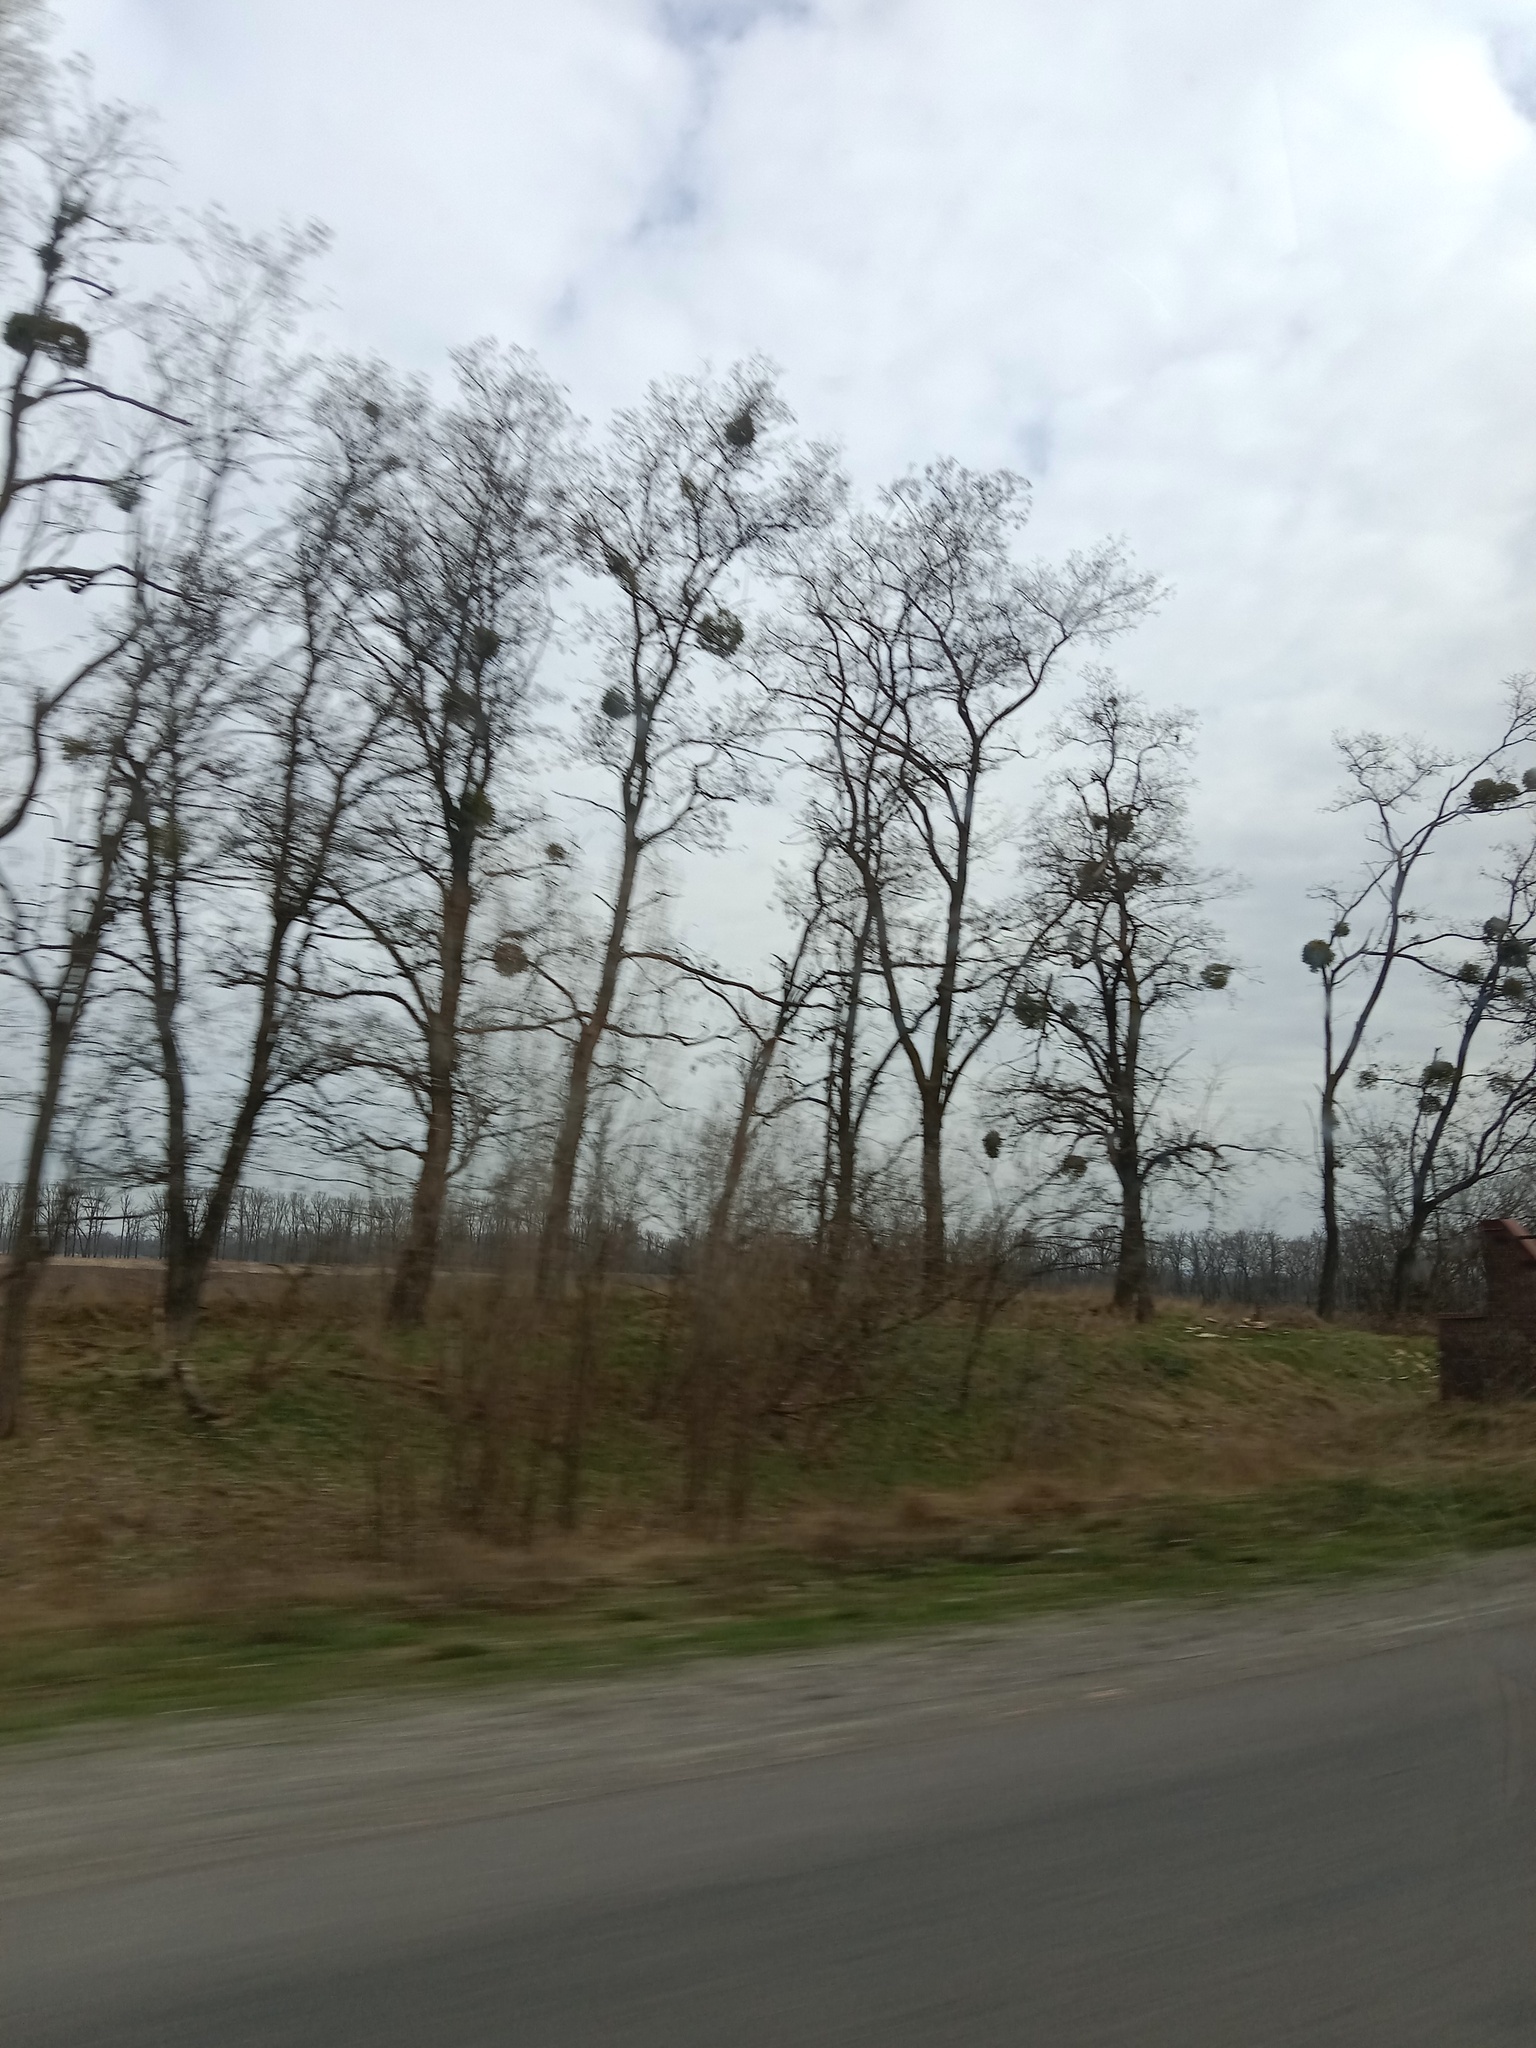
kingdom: Plantae
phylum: Tracheophyta
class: Magnoliopsida
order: Santalales
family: Viscaceae
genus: Viscum
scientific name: Viscum album
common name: Mistletoe
